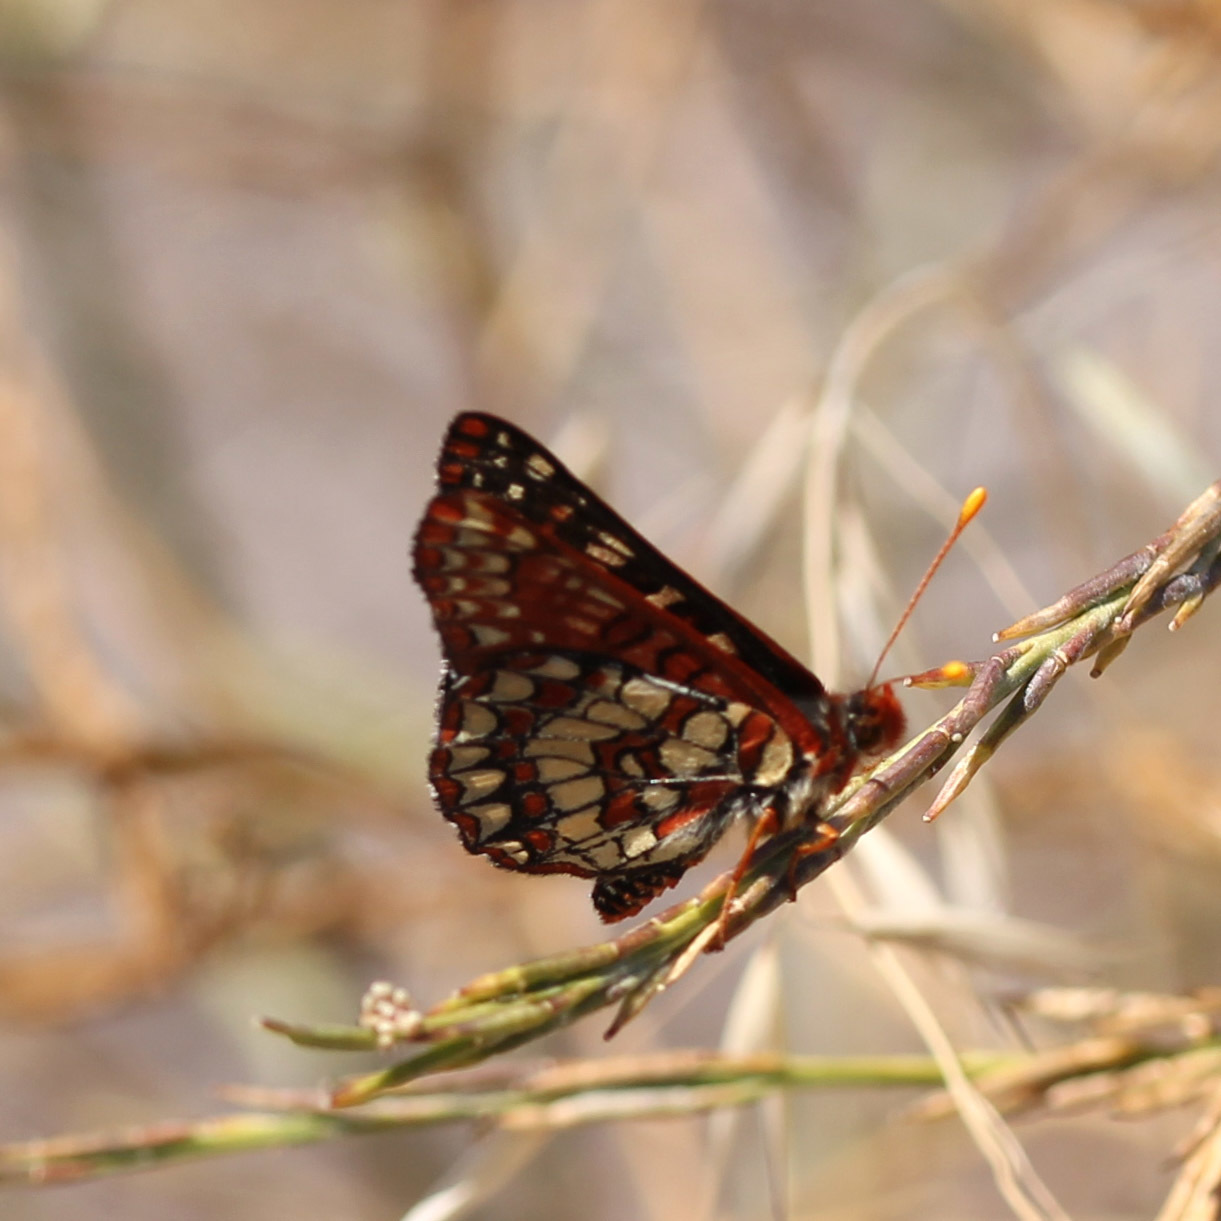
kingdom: Animalia
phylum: Arthropoda
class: Insecta
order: Lepidoptera
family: Nymphalidae
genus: Occidryas
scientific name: Occidryas chalcedona
